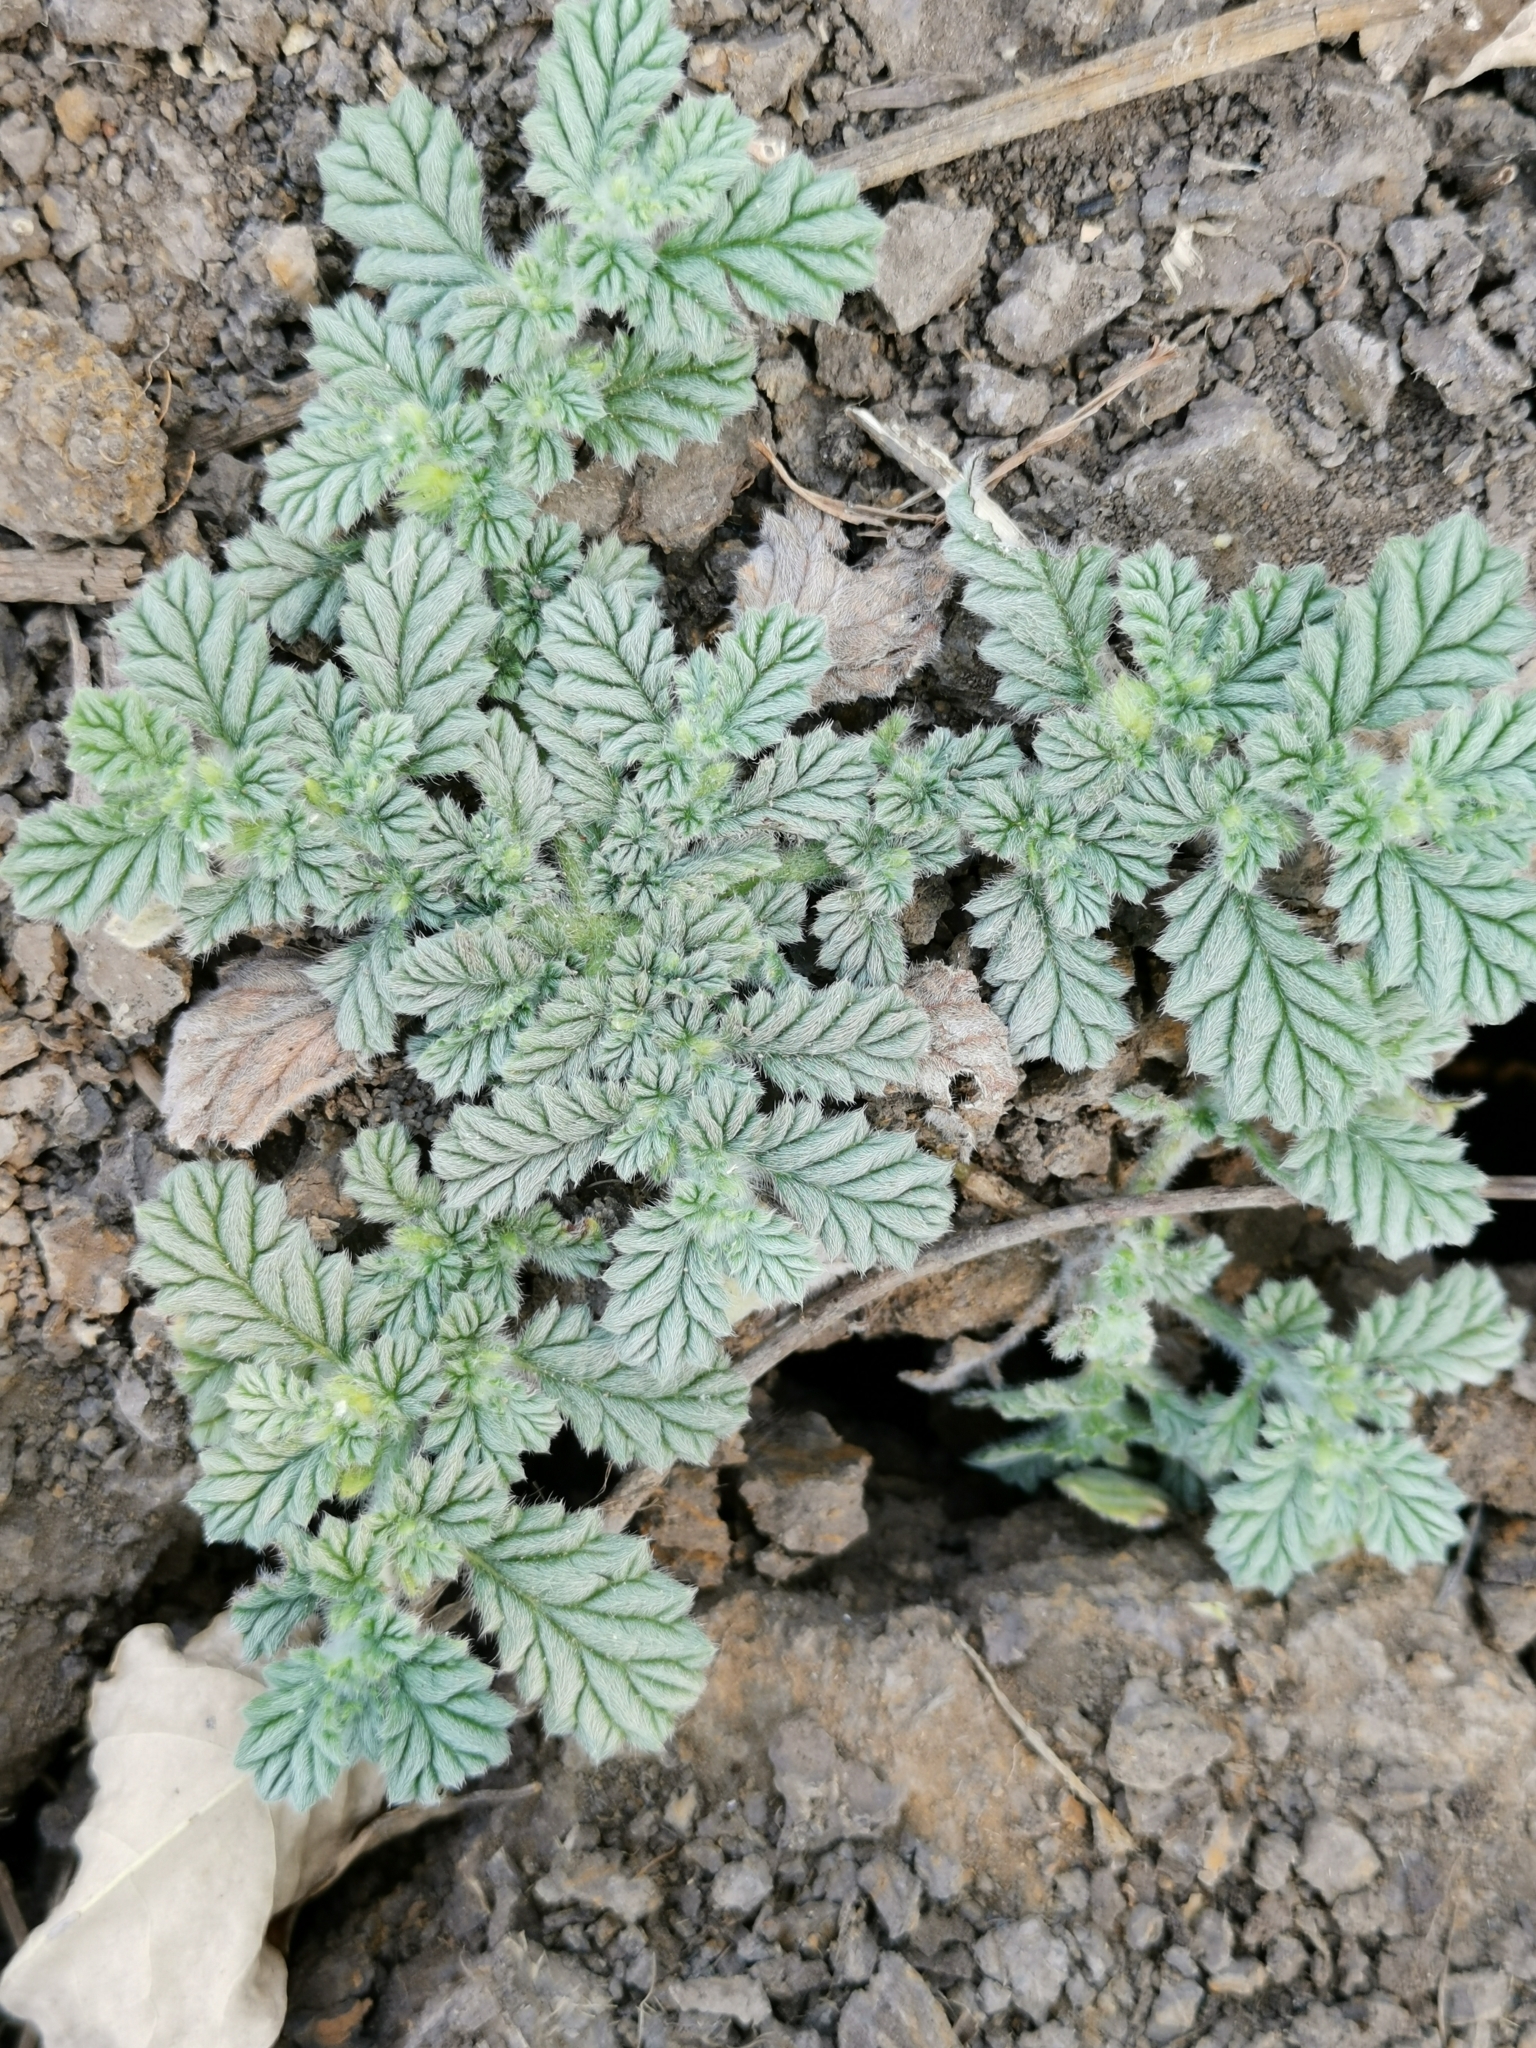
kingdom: Plantae
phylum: Tracheophyta
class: Magnoliopsida
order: Boraginales
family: Coldeniaceae
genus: Coldenia
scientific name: Coldenia procumbens
